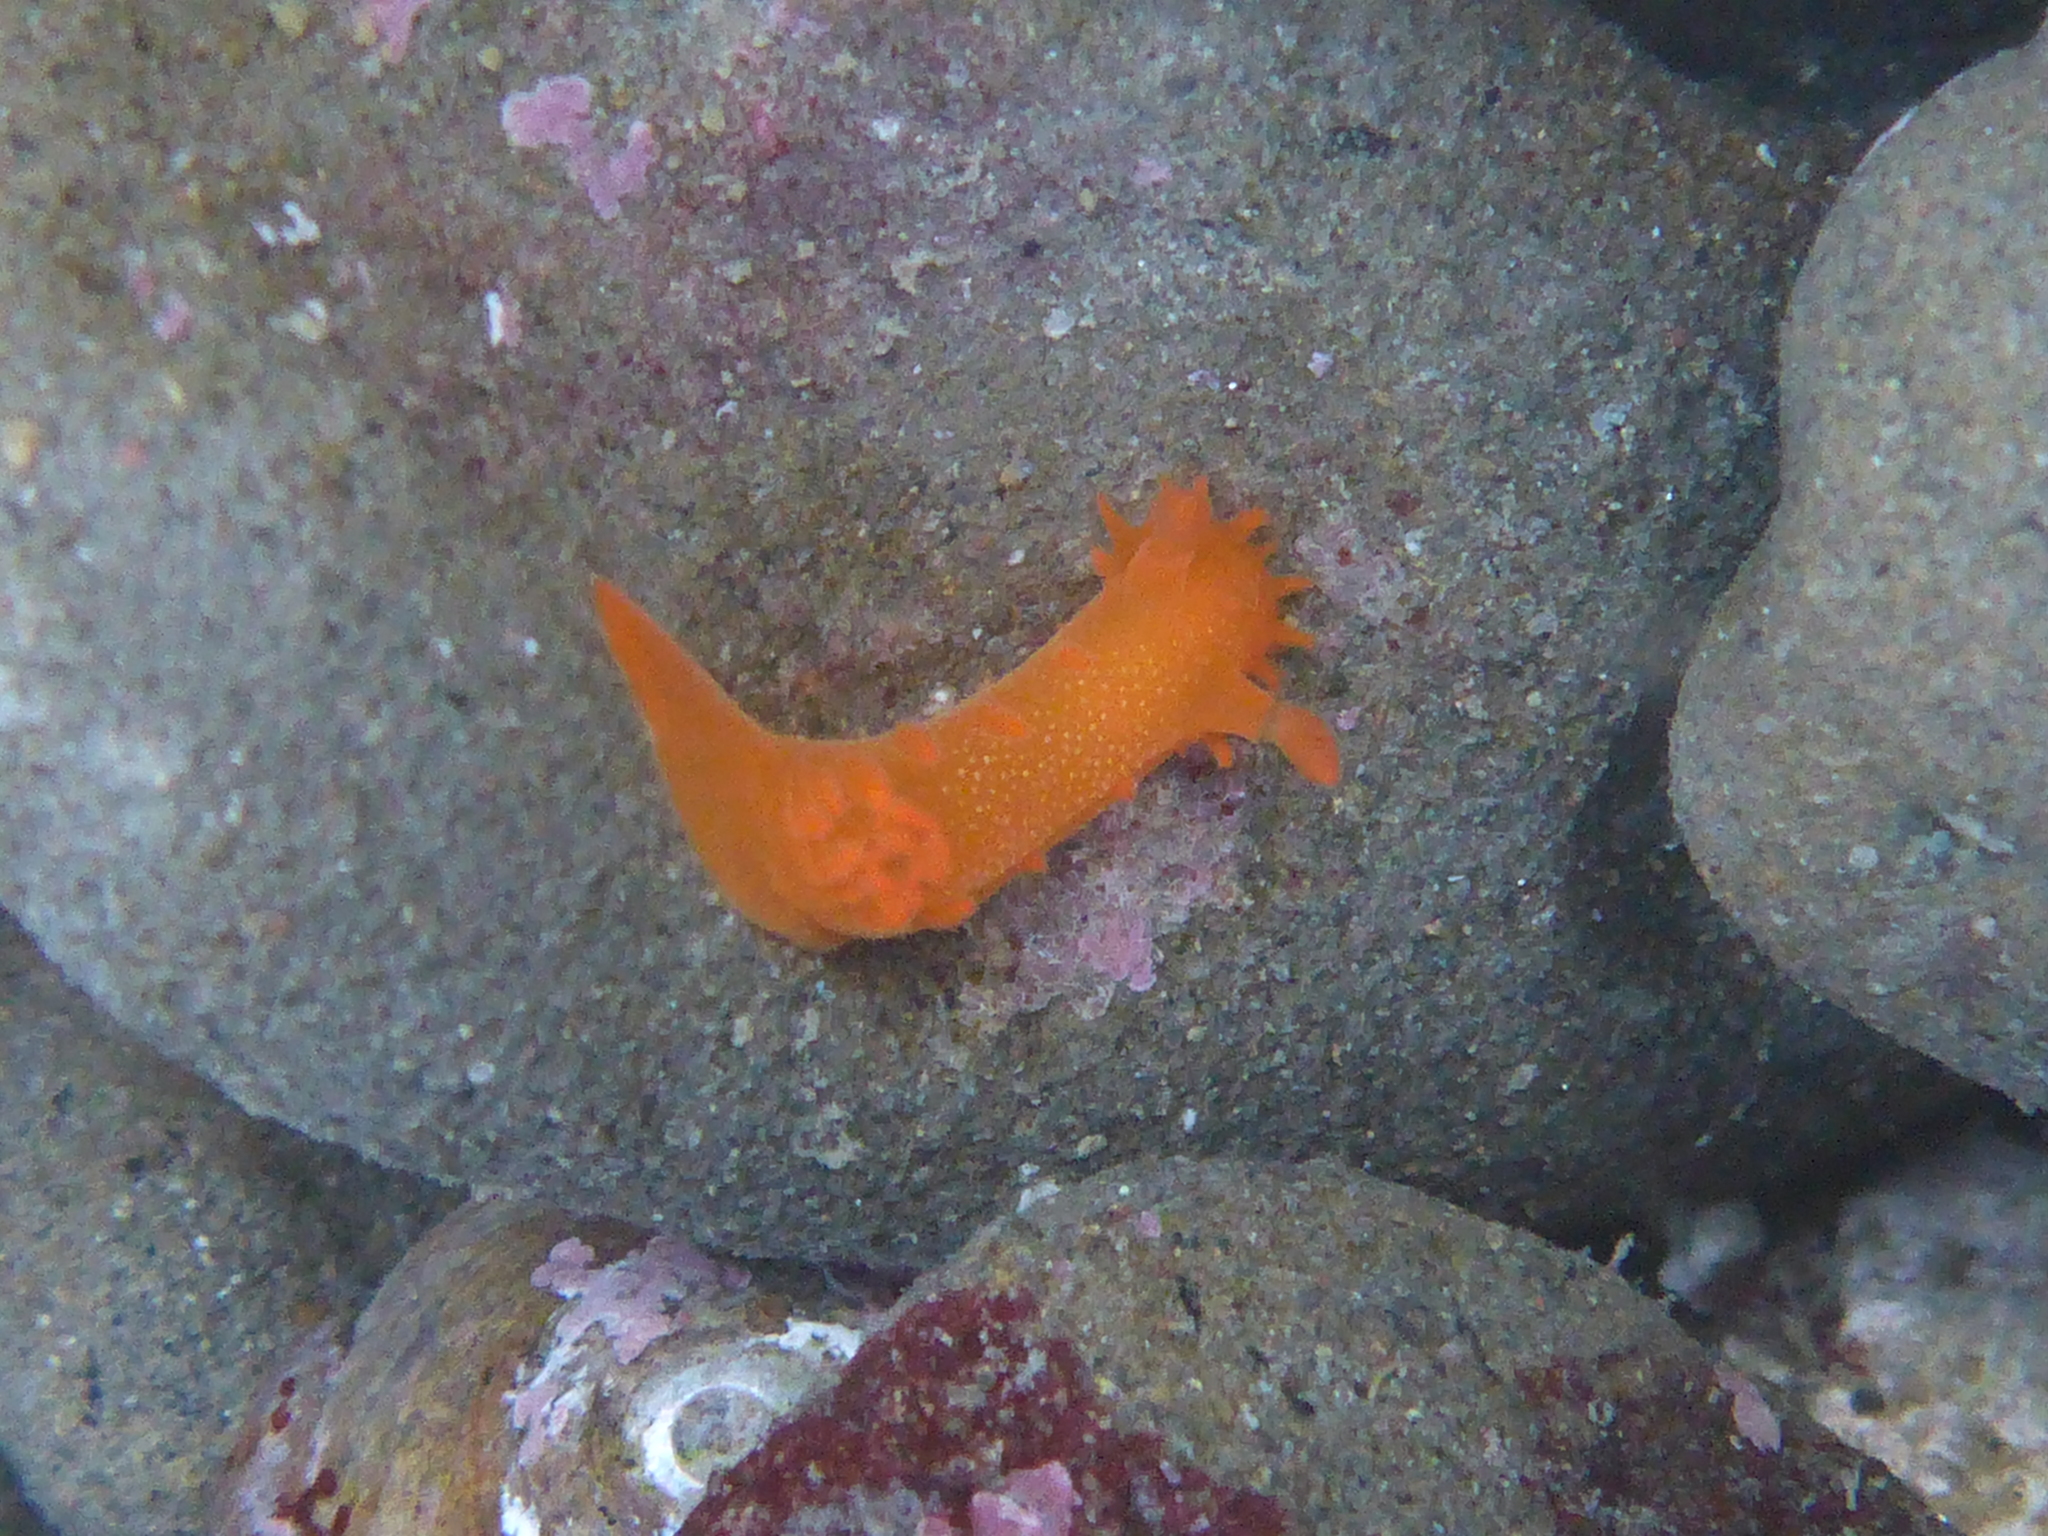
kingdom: Animalia
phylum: Mollusca
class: Gastropoda
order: Nudibranchia
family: Polyceridae
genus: Triopha
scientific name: Triopha maculata
